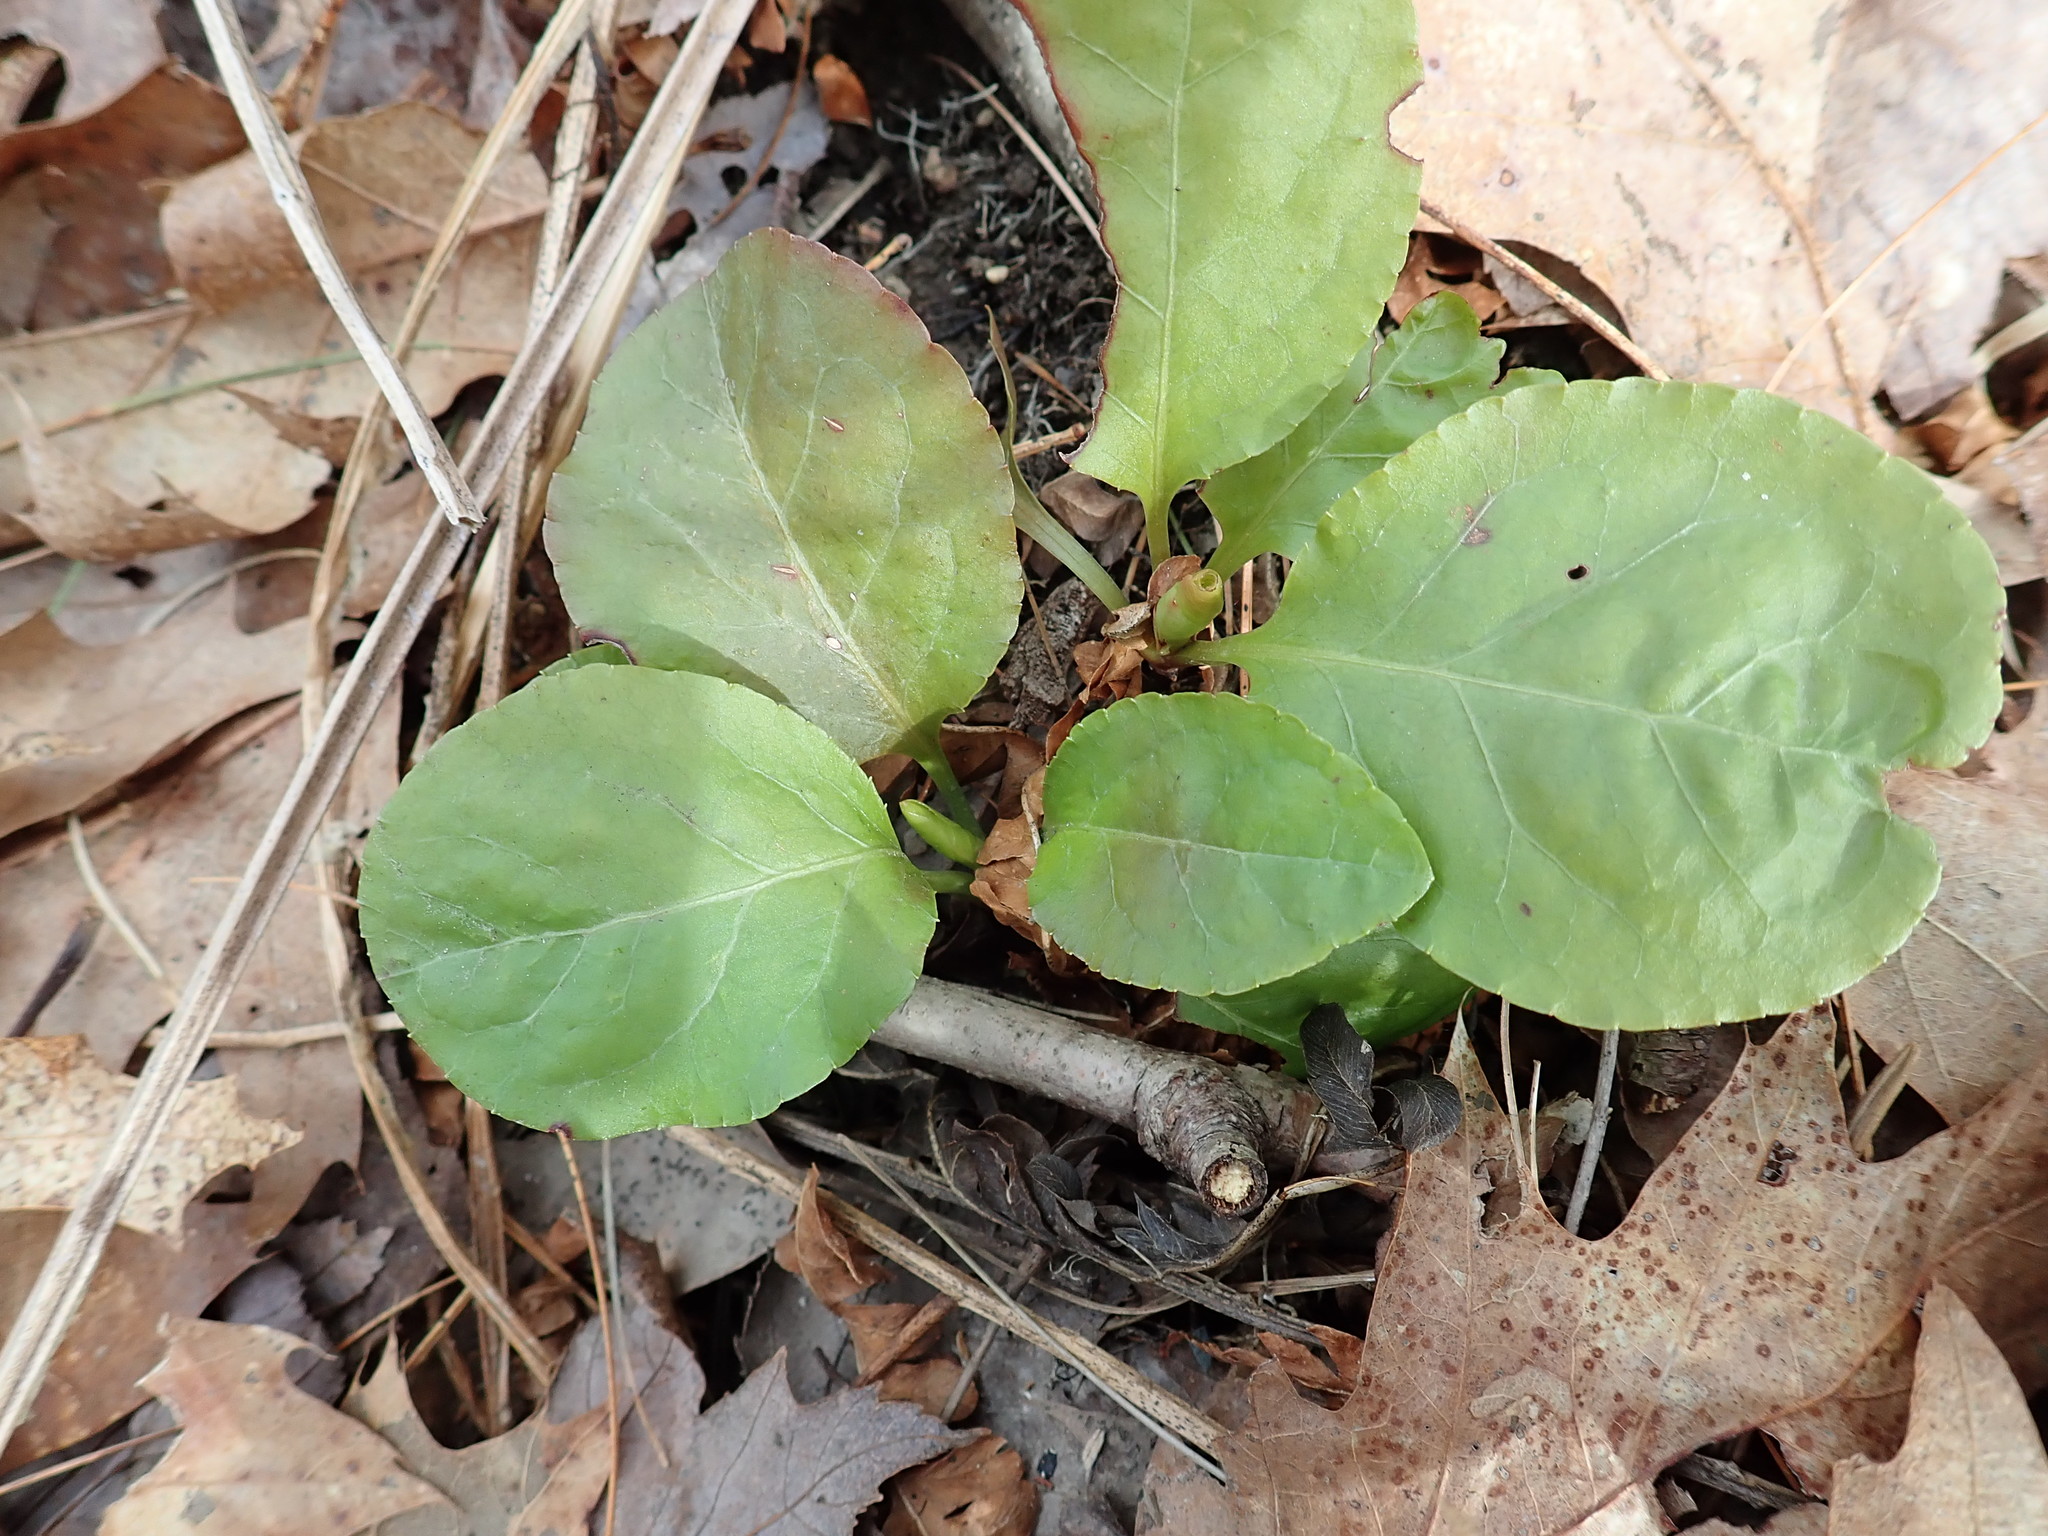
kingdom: Plantae
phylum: Tracheophyta
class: Magnoliopsida
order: Ericales
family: Ericaceae
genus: Pyrola
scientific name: Pyrola elliptica
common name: Shinleaf
